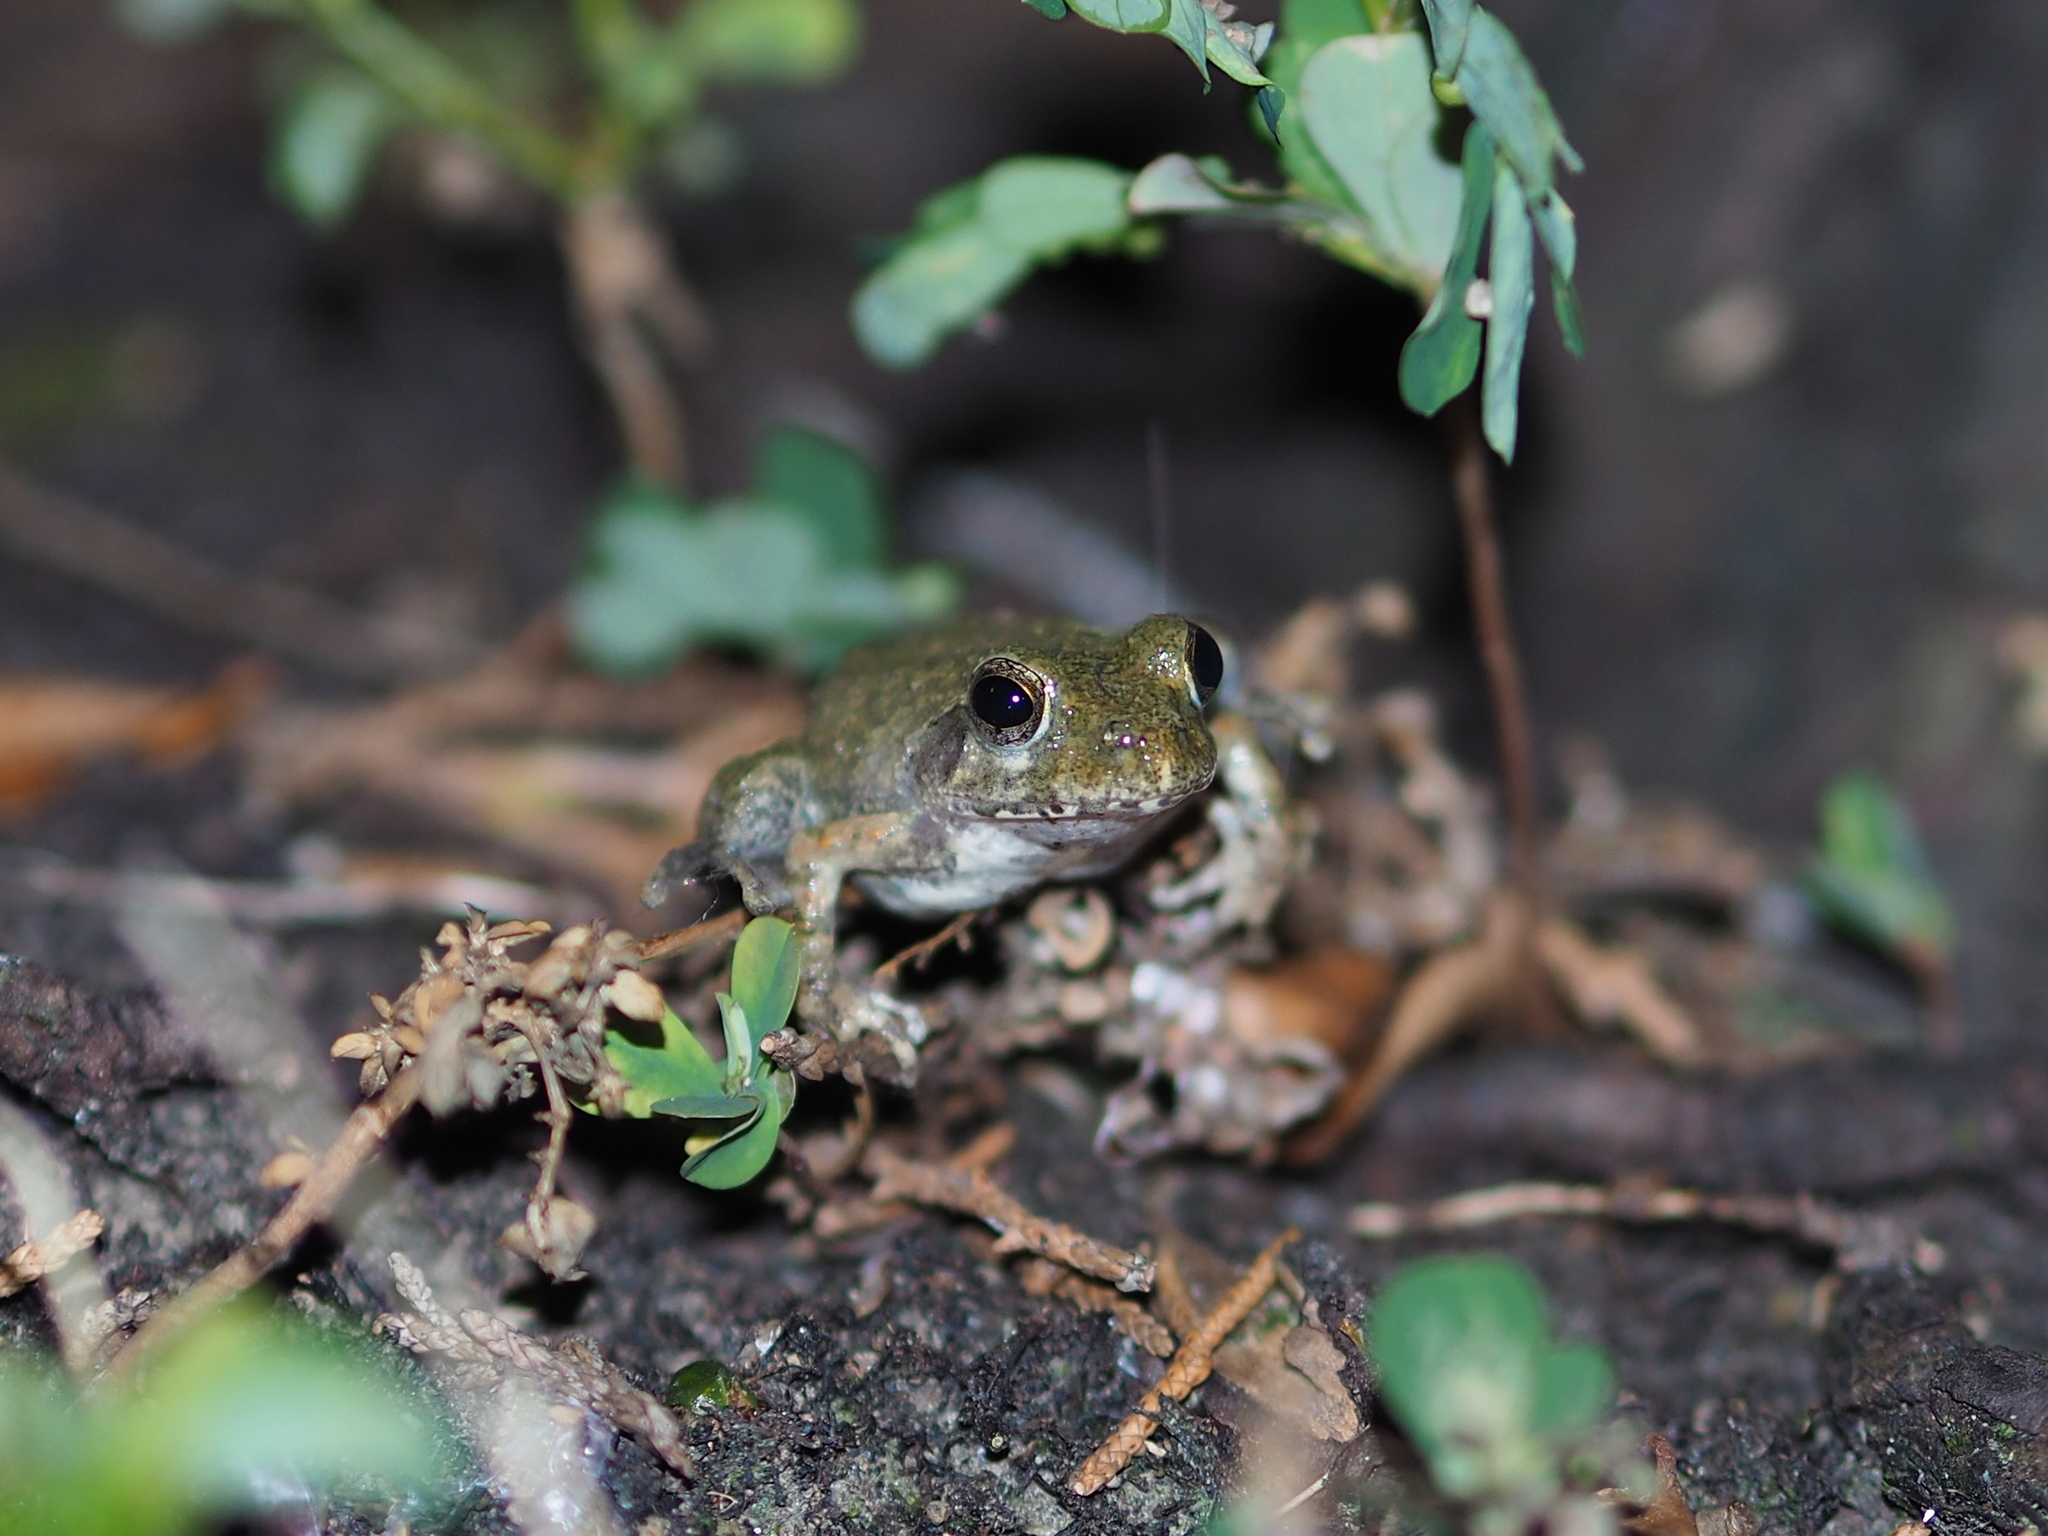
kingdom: Animalia
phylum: Chordata
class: Amphibia
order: Anura
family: Rhacophoridae
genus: Buergeria
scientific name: Buergeria choui
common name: Yaeyama kajika frog
